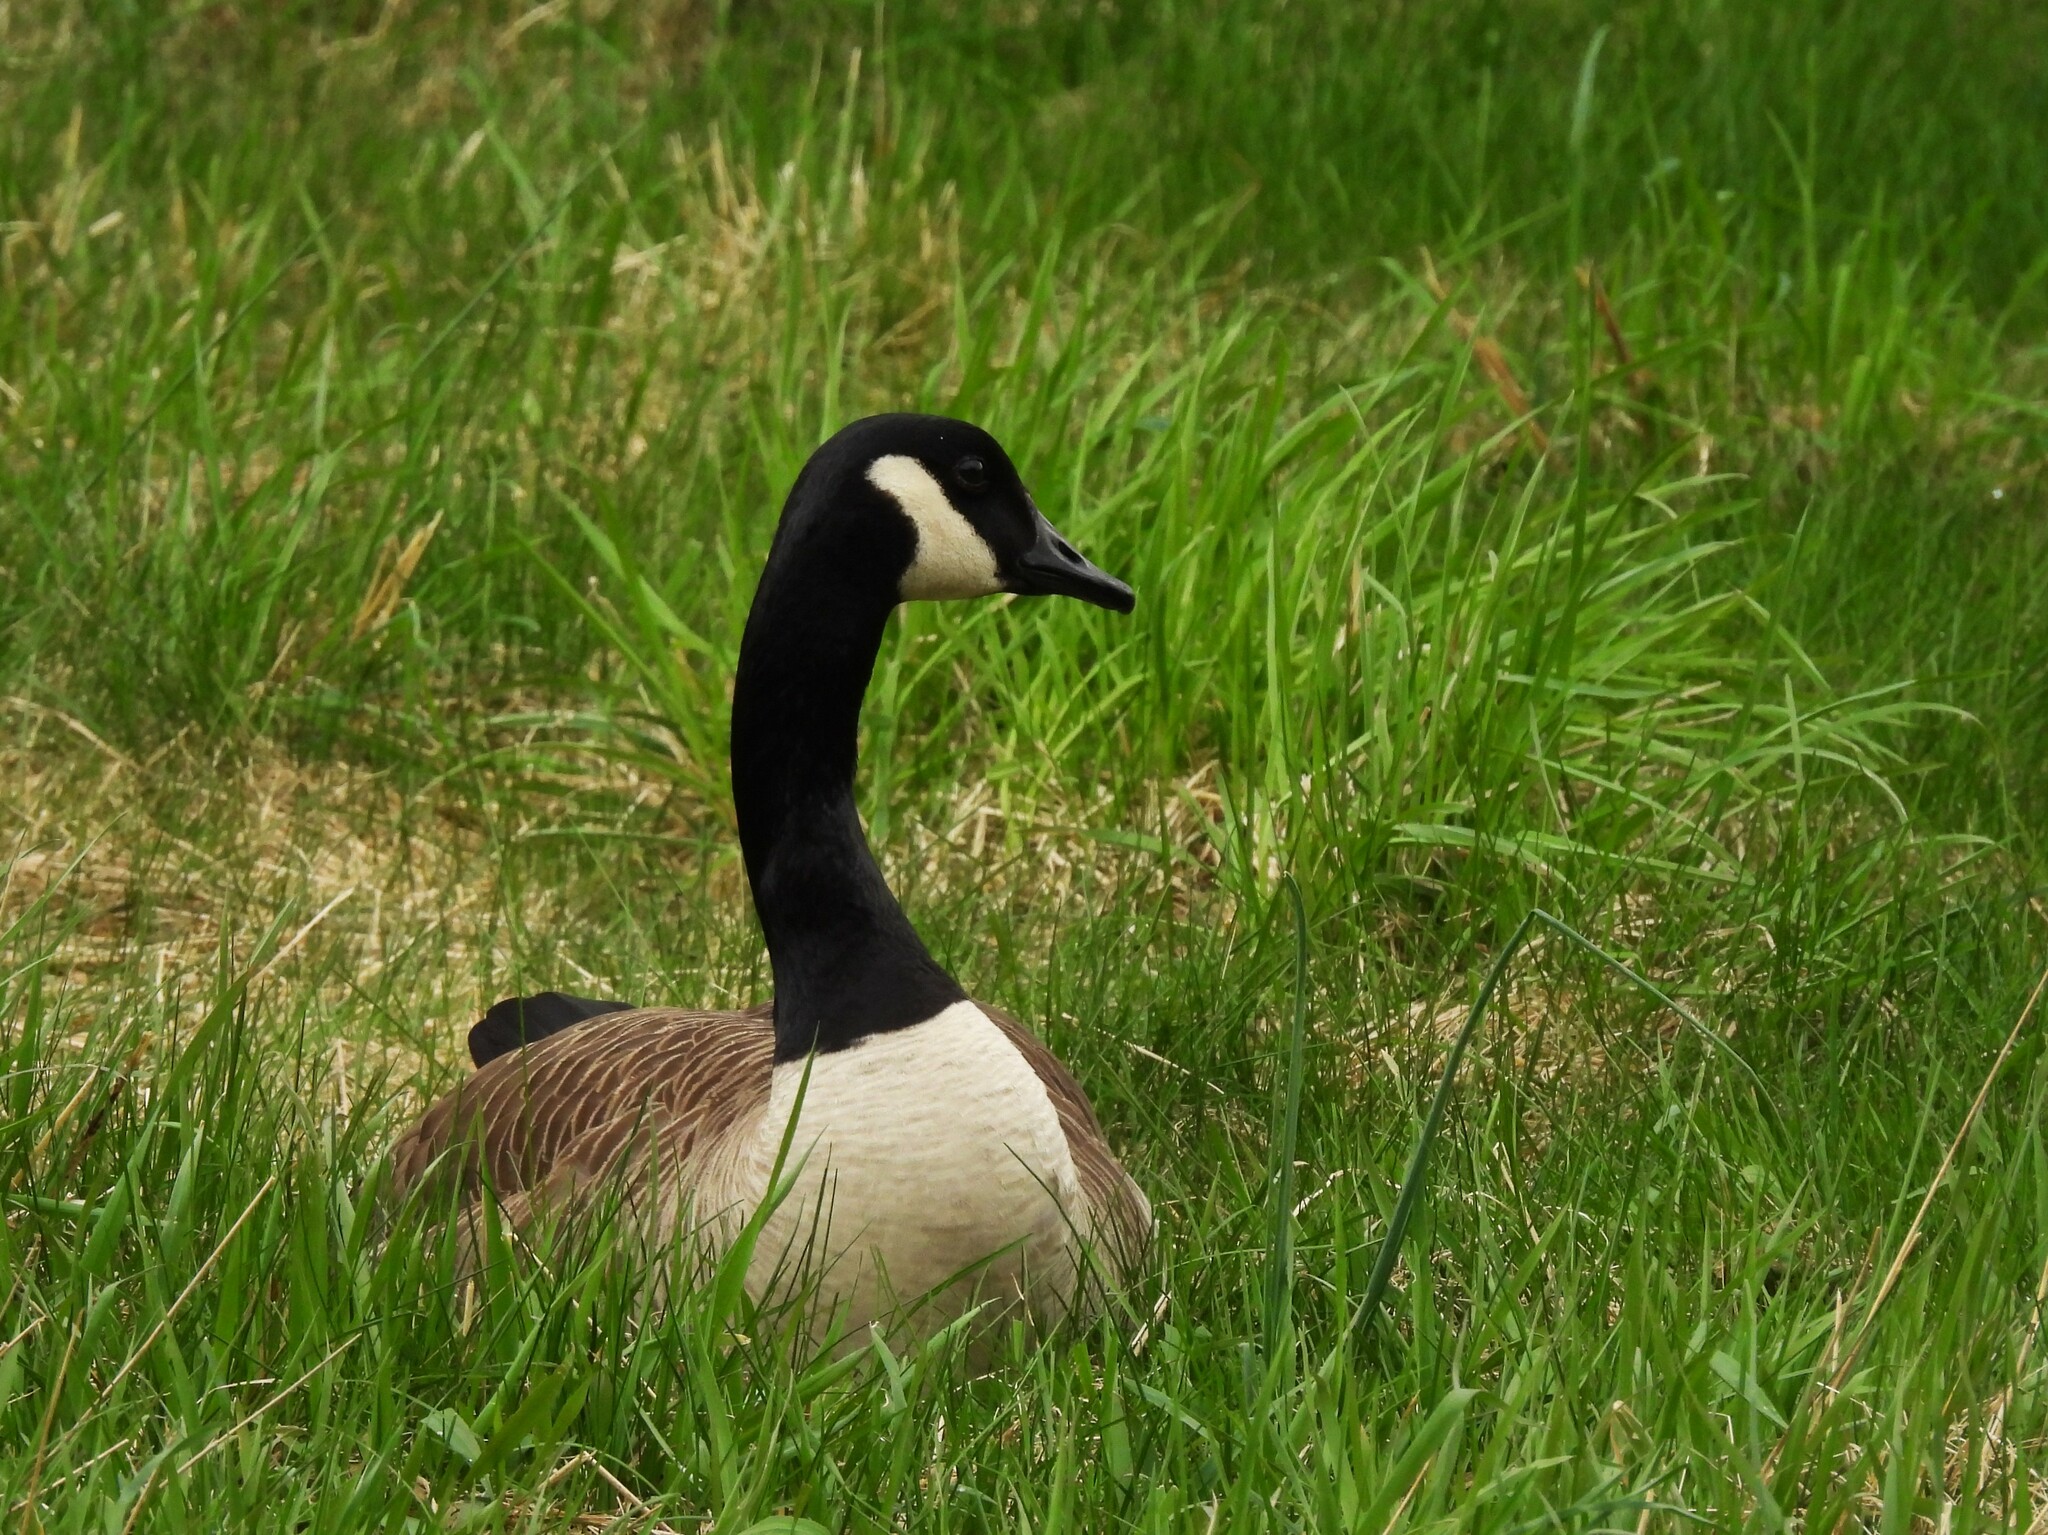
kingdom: Animalia
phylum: Chordata
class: Aves
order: Anseriformes
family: Anatidae
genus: Branta
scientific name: Branta canadensis
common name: Canada goose
